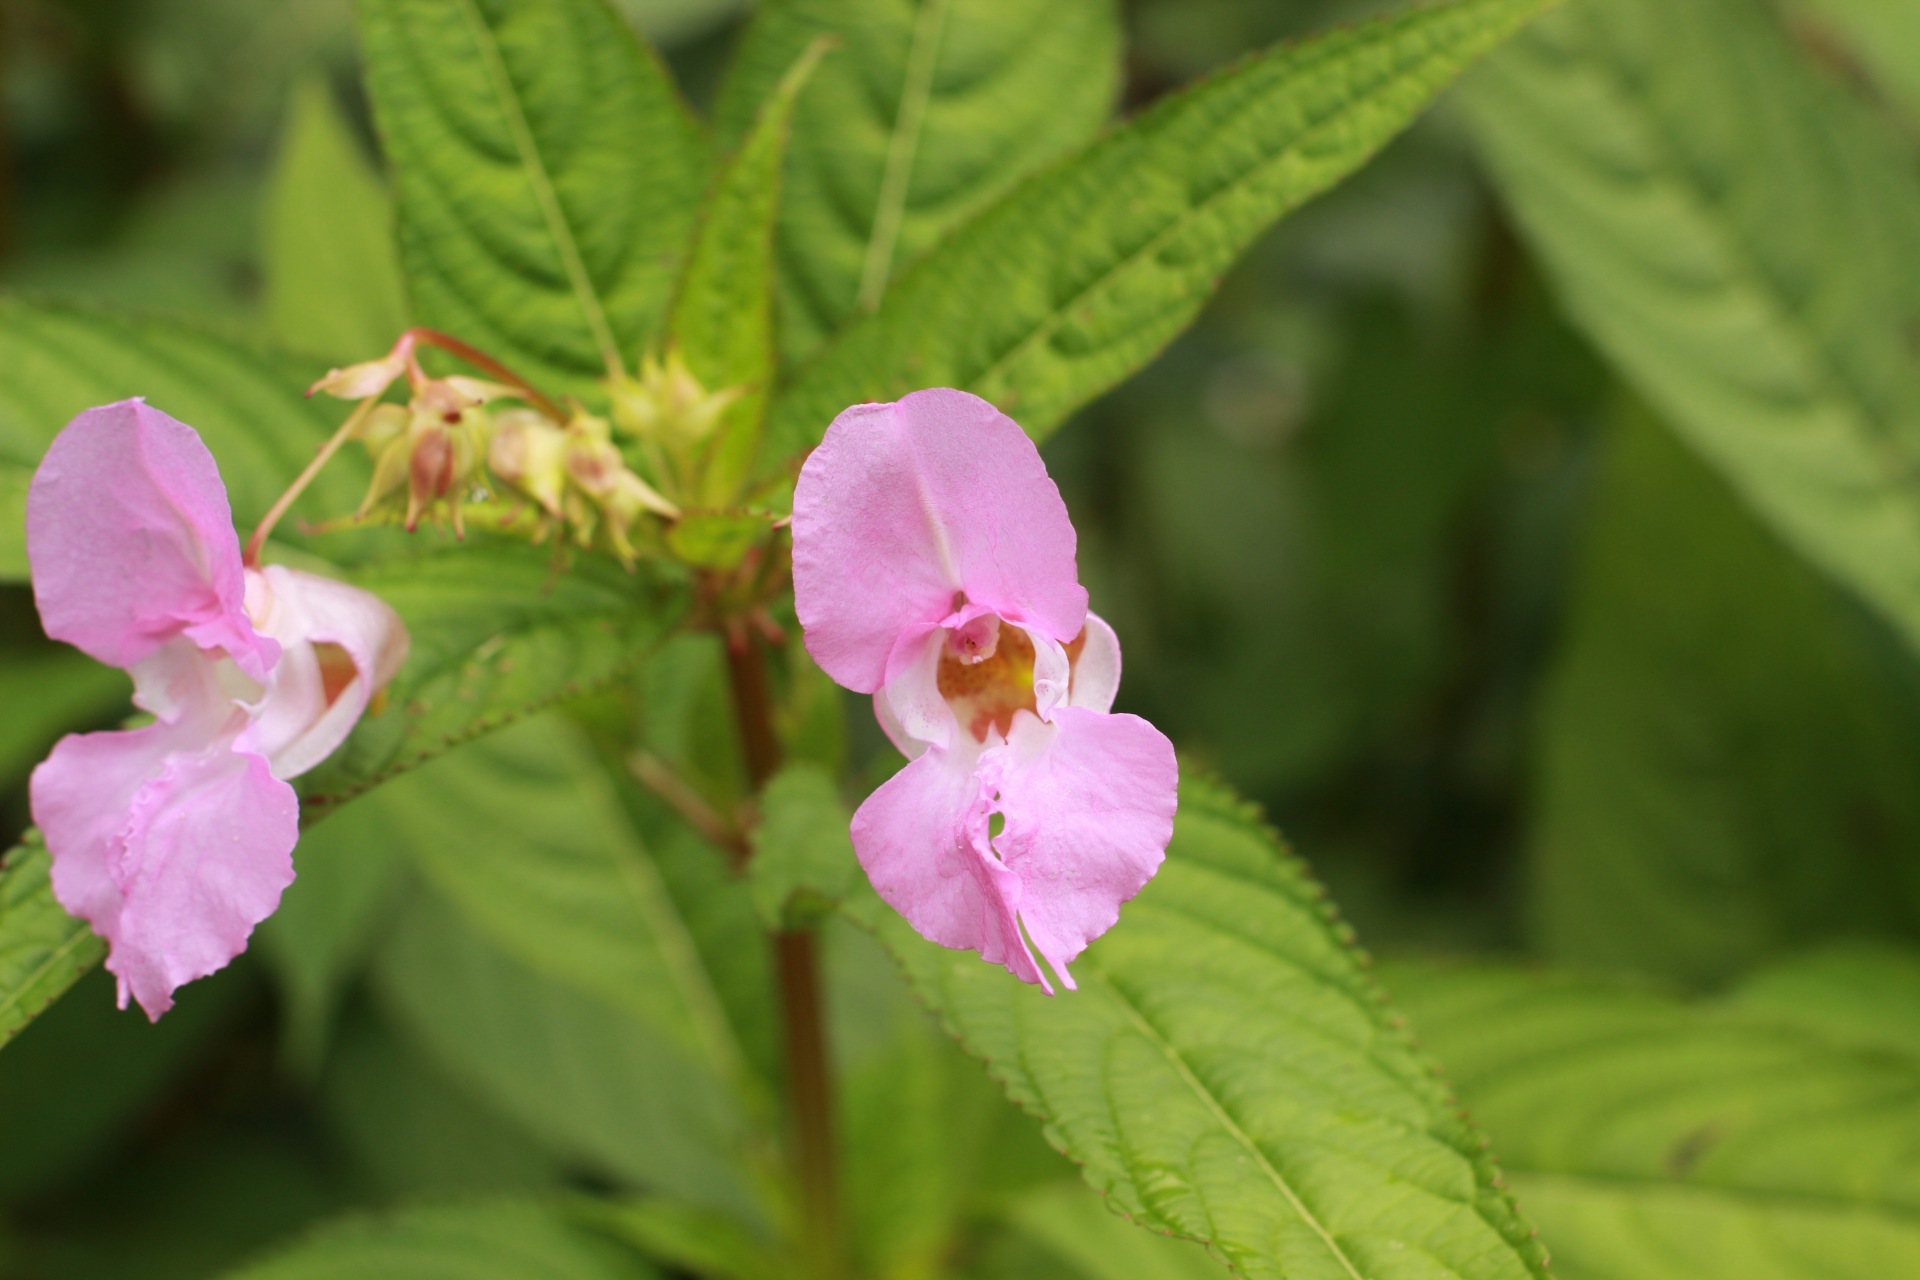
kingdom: Plantae
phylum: Tracheophyta
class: Magnoliopsida
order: Ericales
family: Balsaminaceae
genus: Impatiens
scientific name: Impatiens glandulifera
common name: Himalayan balsam
